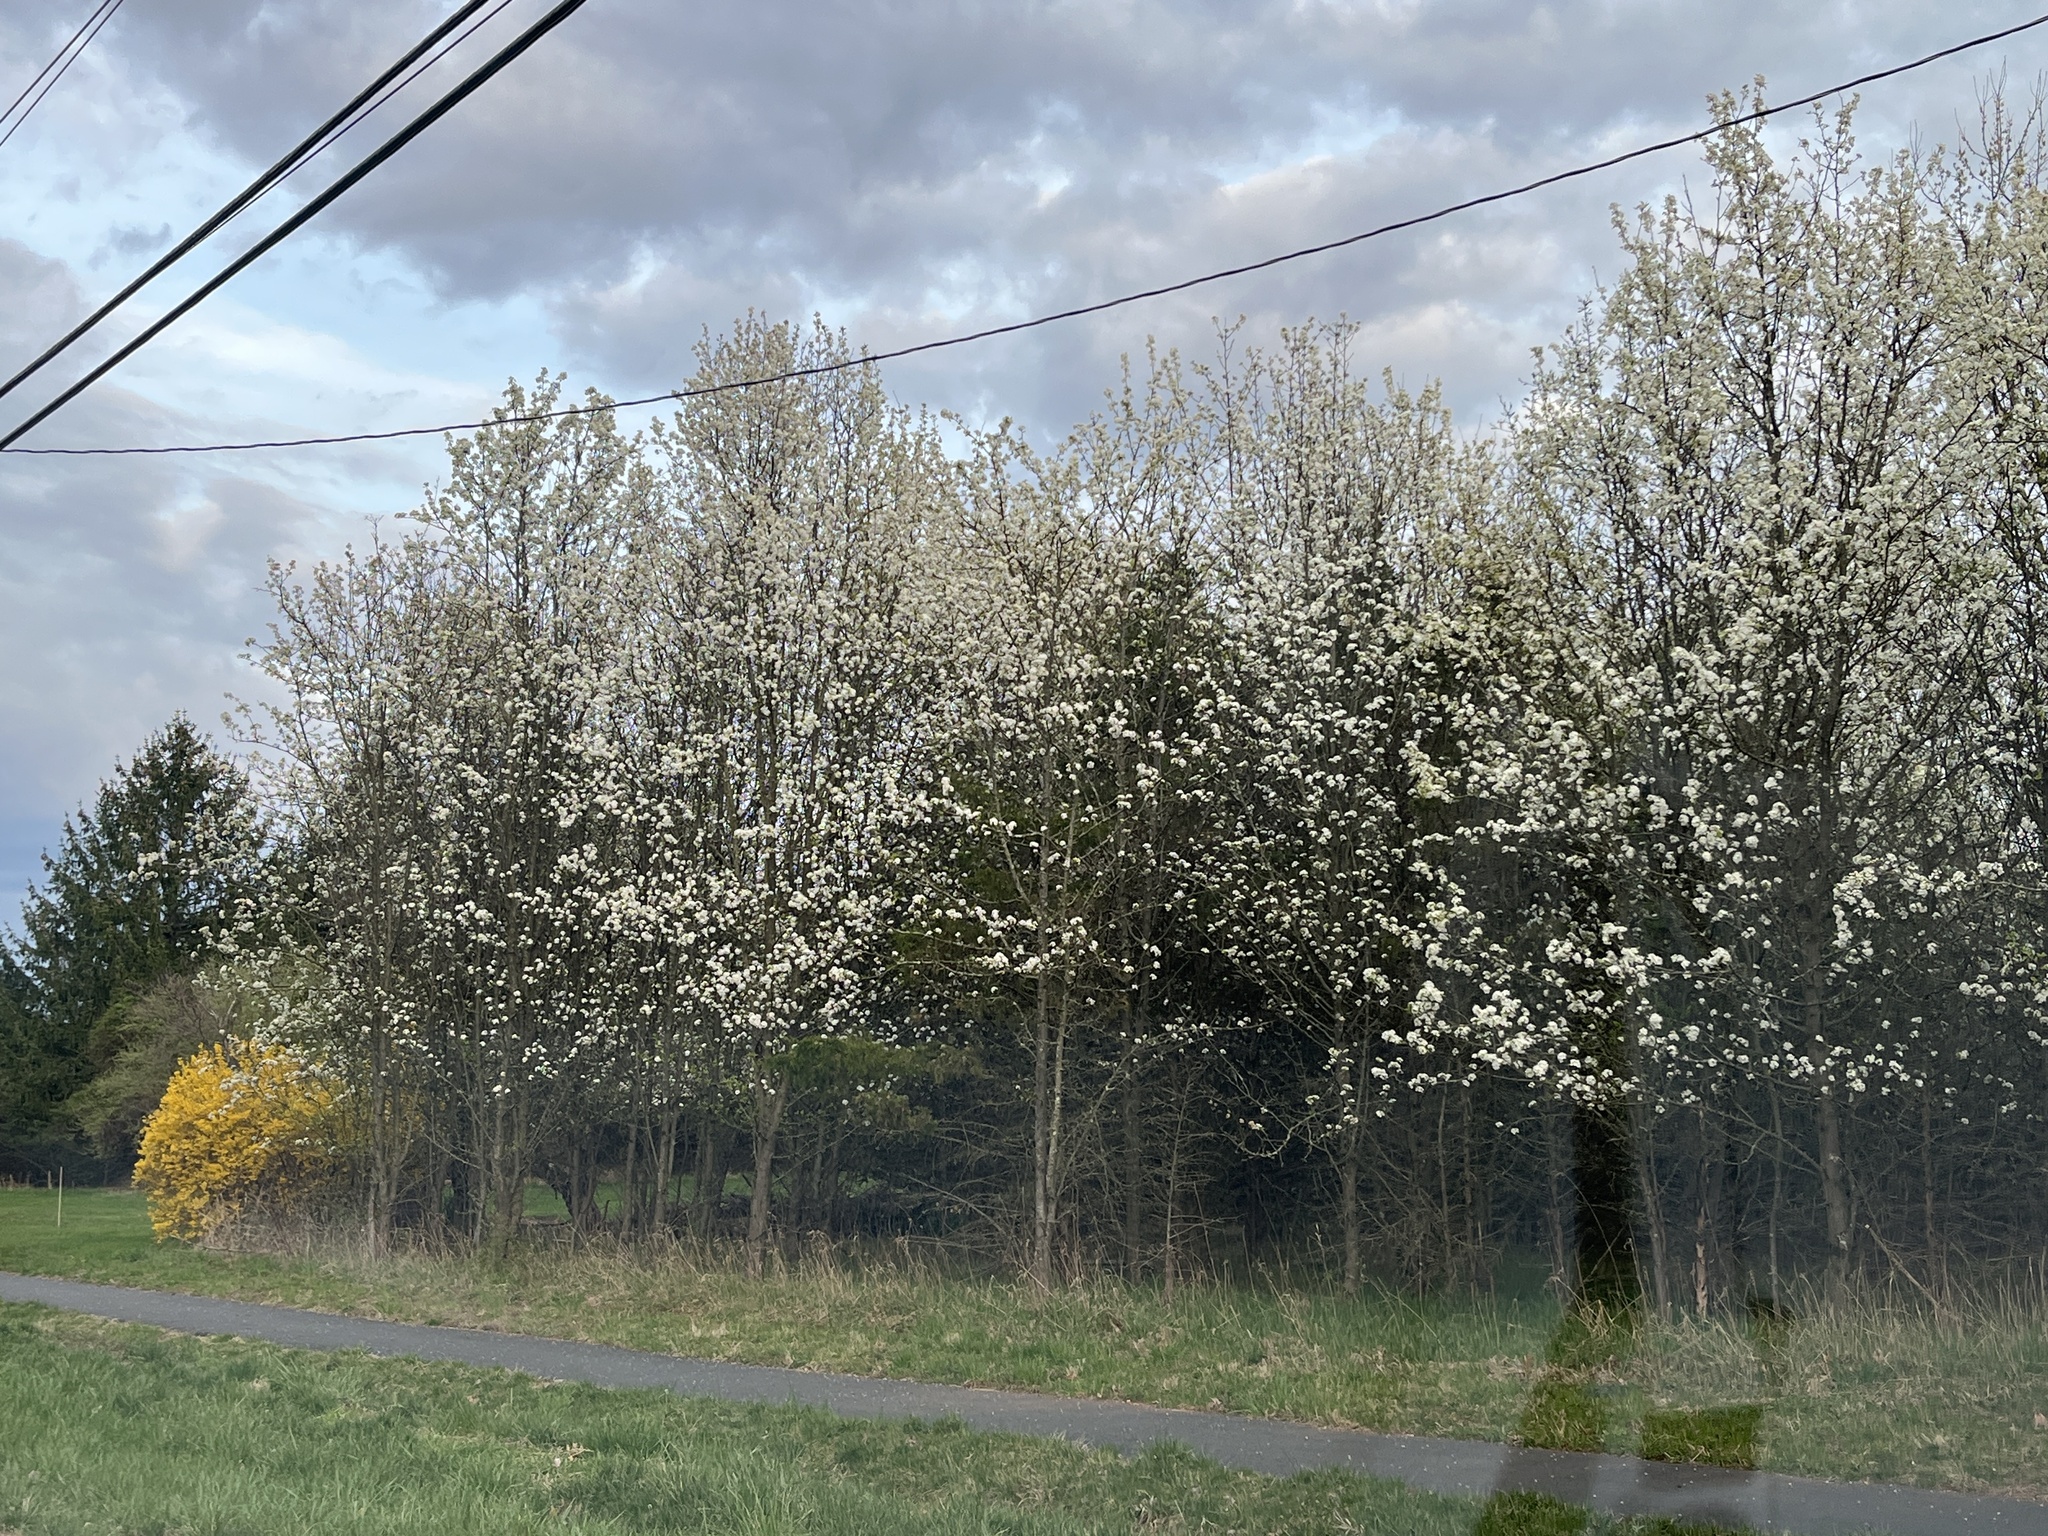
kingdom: Plantae
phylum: Tracheophyta
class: Magnoliopsida
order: Rosales
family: Rosaceae
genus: Pyrus
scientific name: Pyrus calleryana
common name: Callery pear
